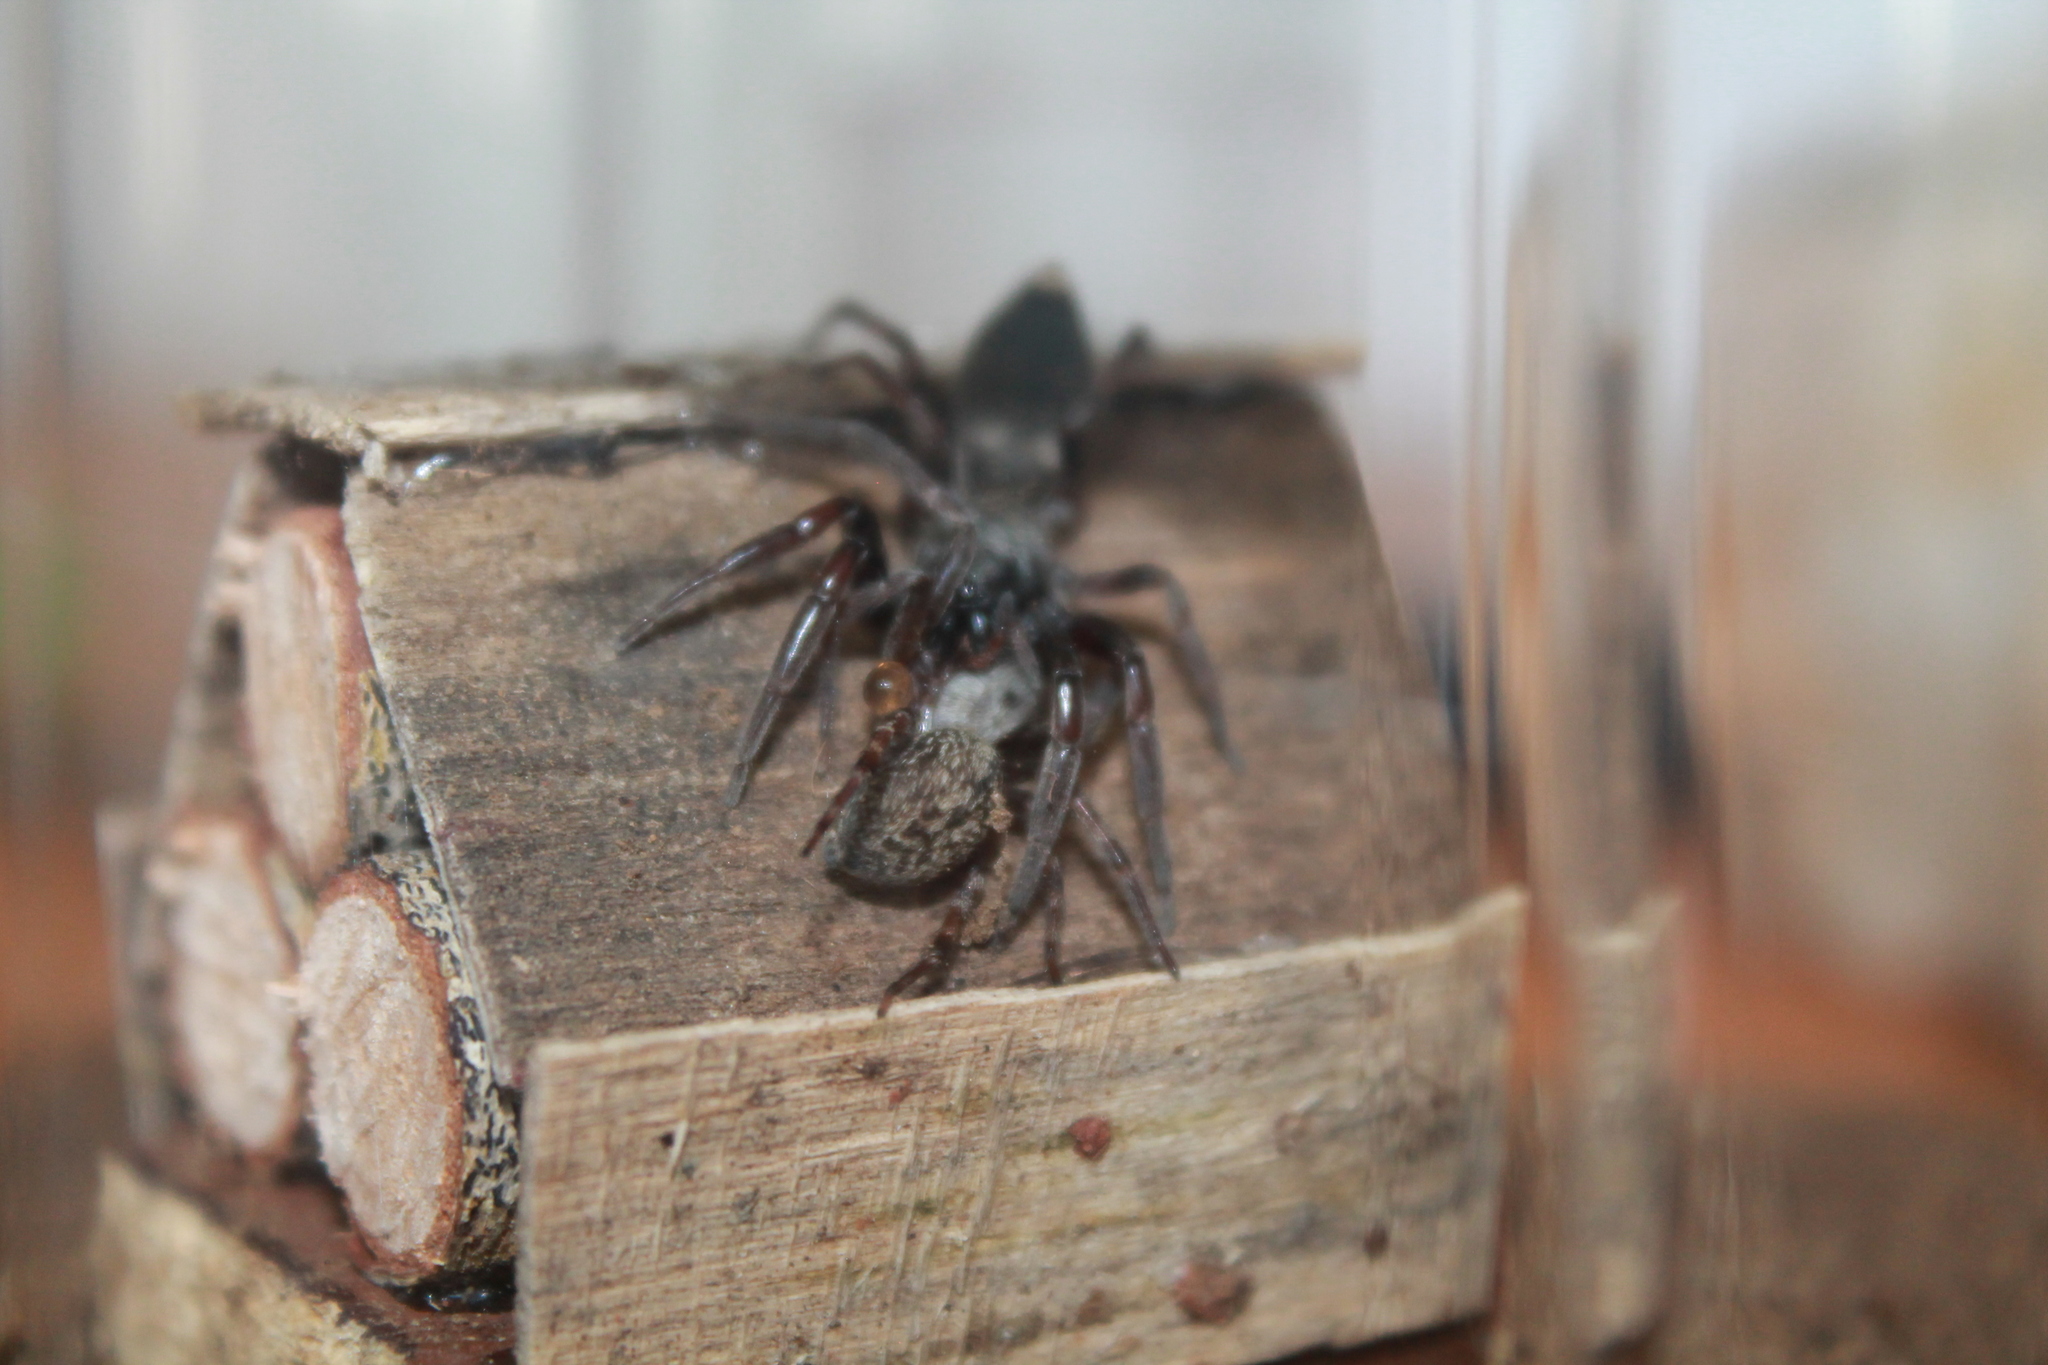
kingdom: Animalia
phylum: Arthropoda
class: Arachnida
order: Araneae
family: Lamponidae
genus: Lampona
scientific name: Lampona murina
